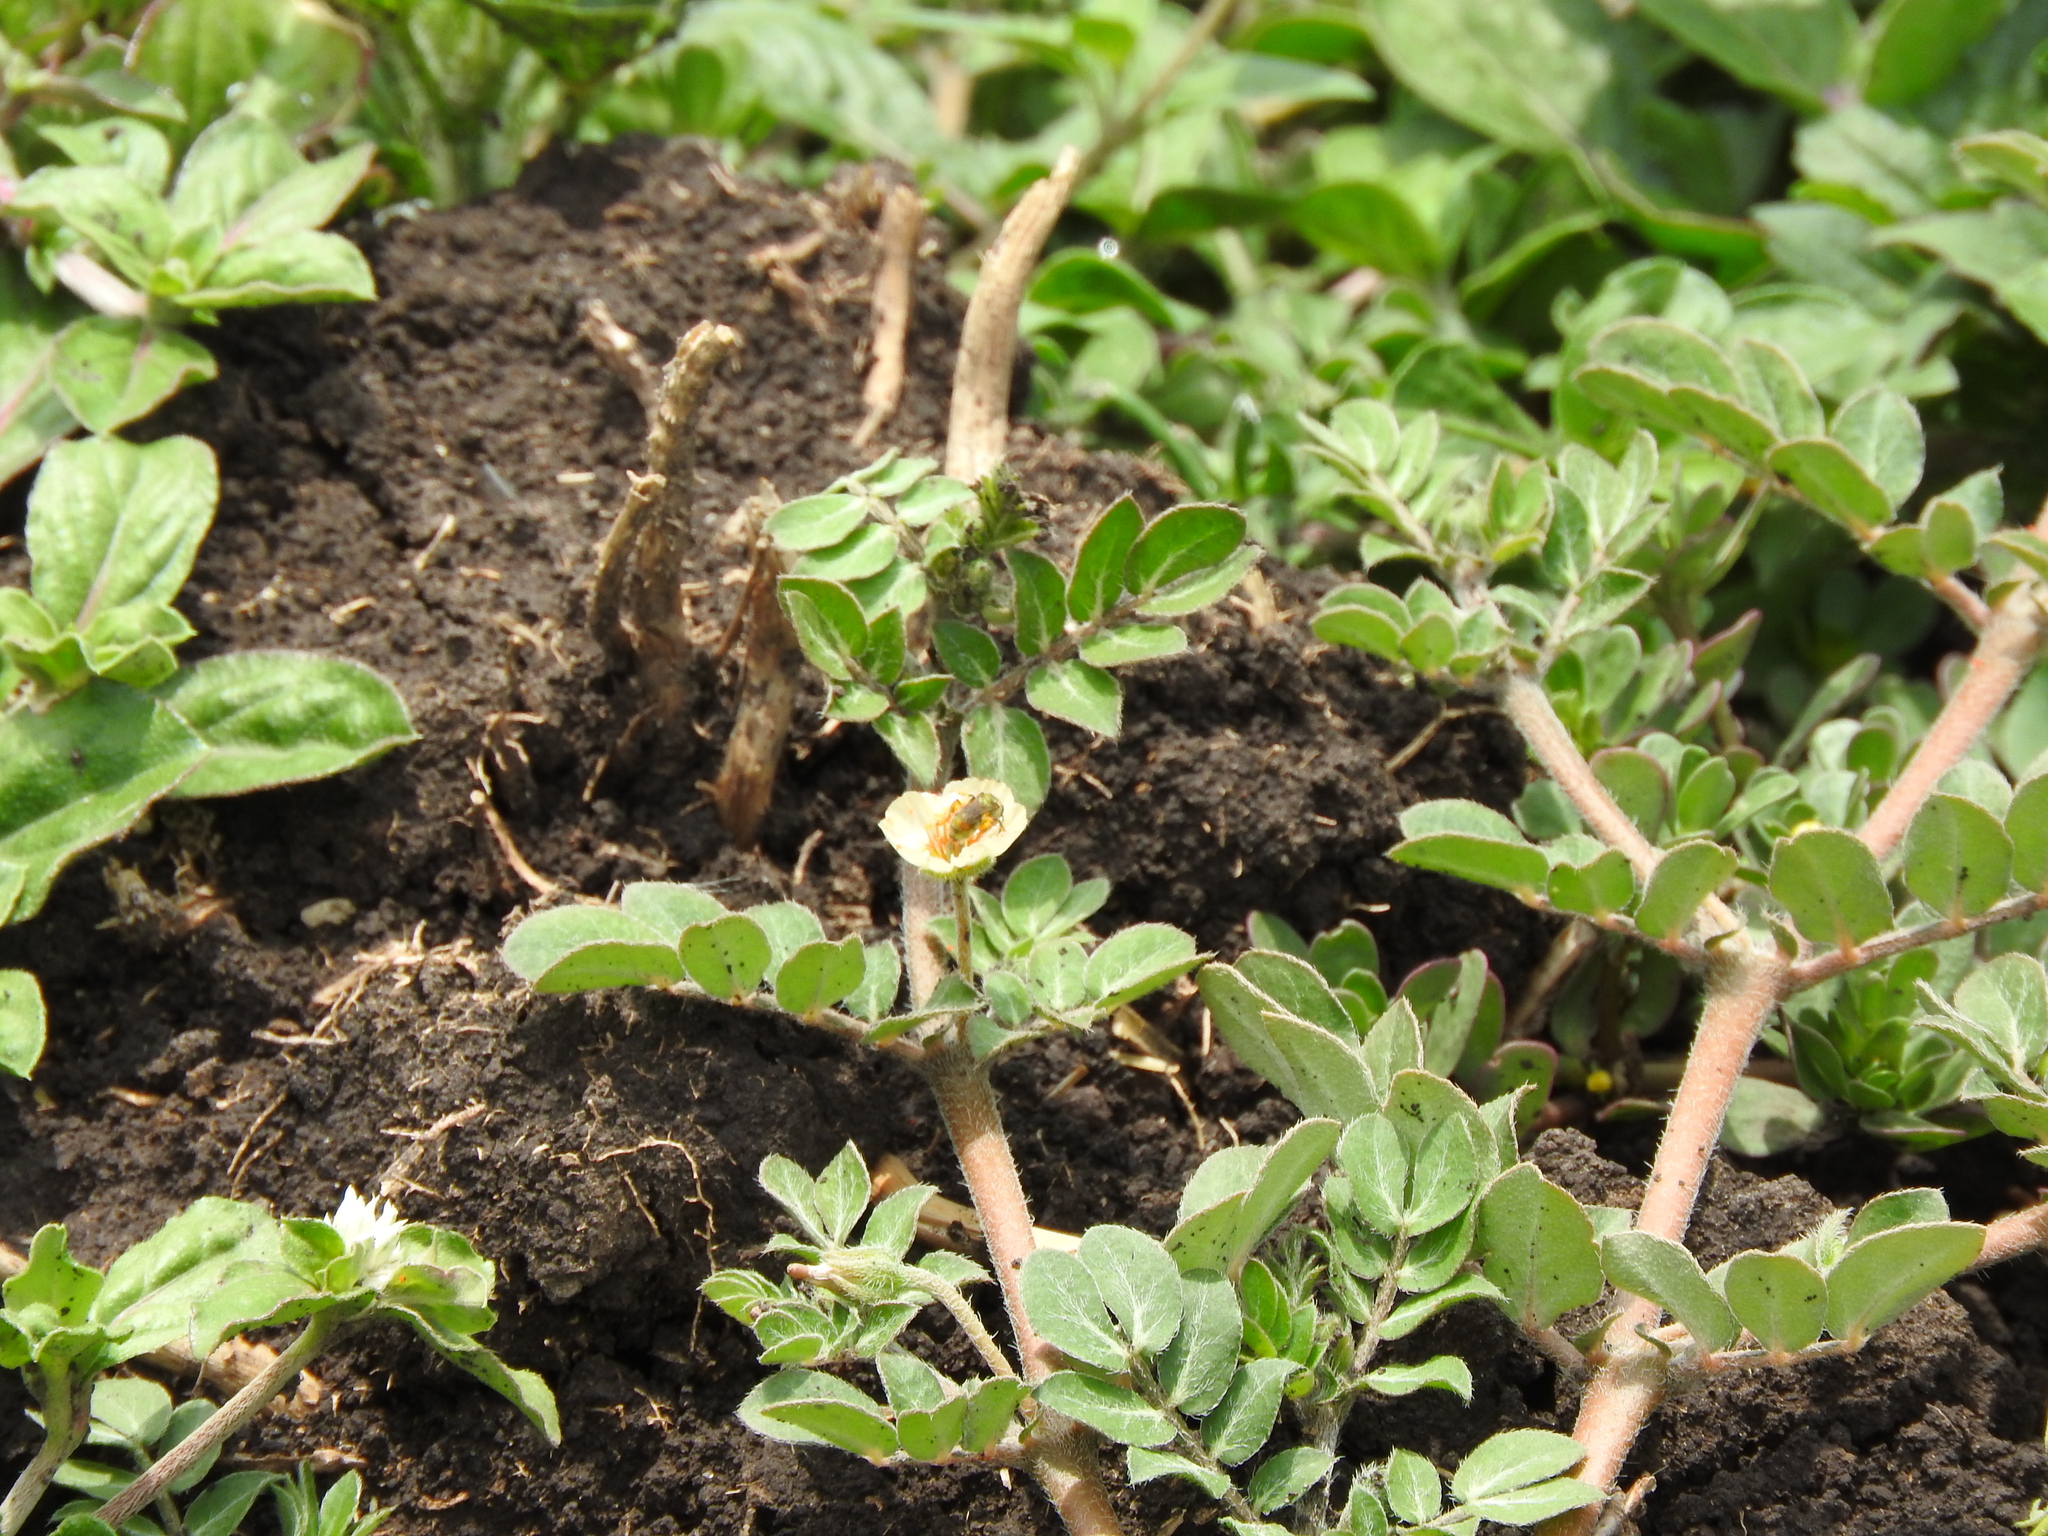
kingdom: Plantae
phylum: Tracheophyta
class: Magnoliopsida
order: Zygophyllales
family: Zygophyllaceae
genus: Kallstroemia
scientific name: Kallstroemia rosei
